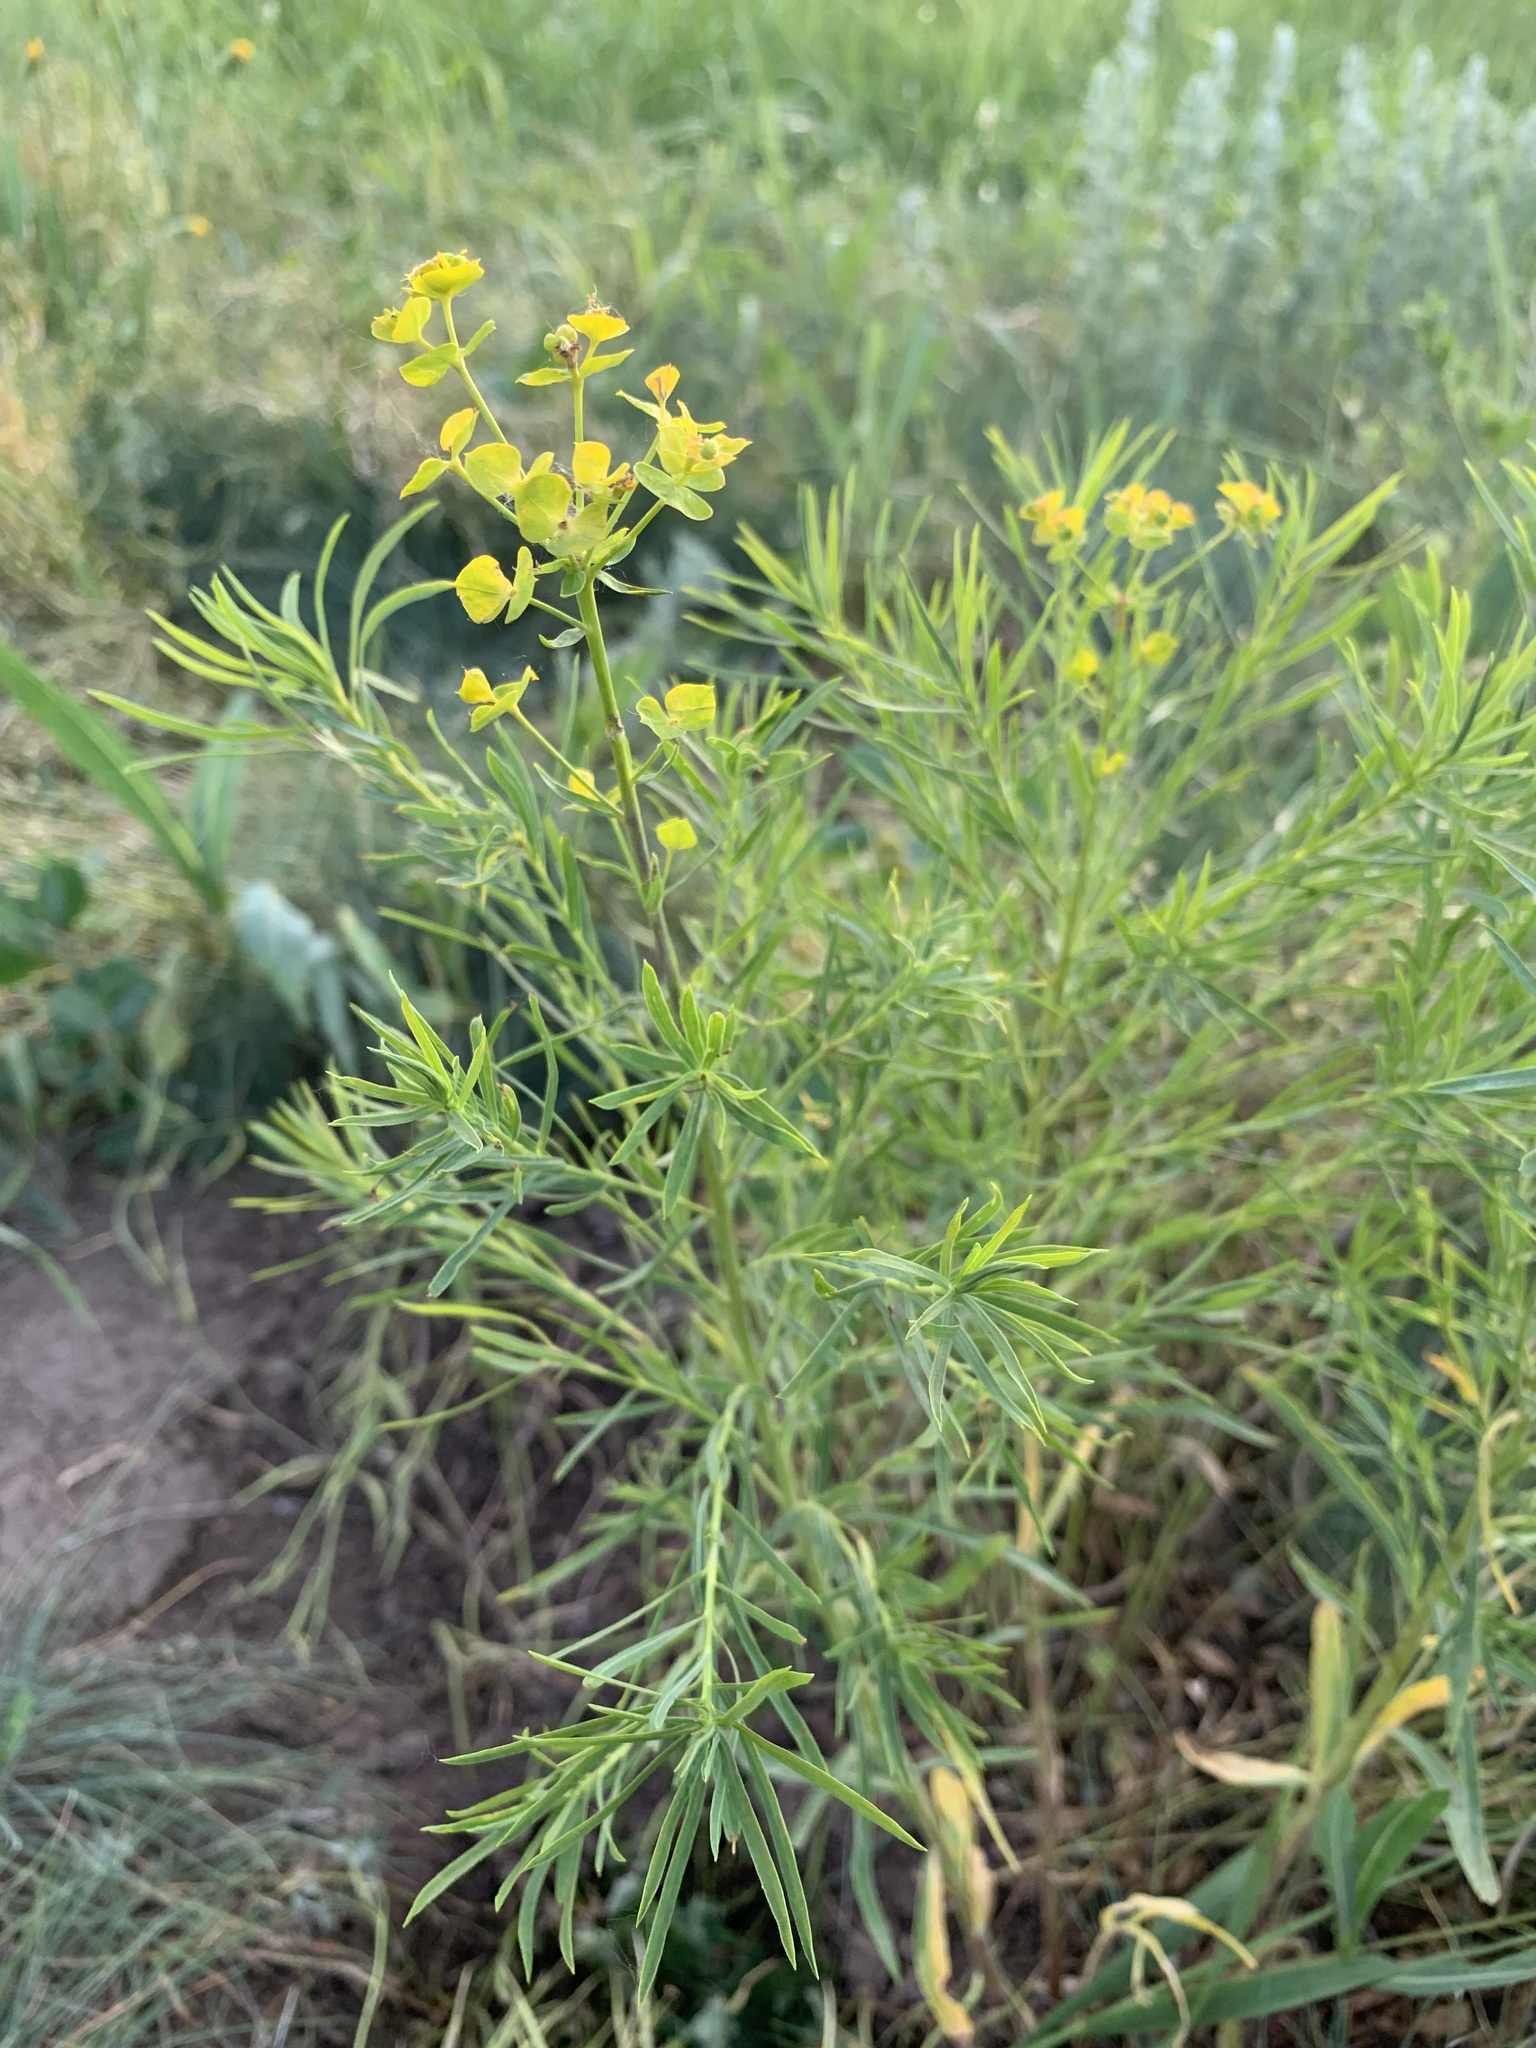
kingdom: Plantae
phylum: Tracheophyta
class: Magnoliopsida
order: Malpighiales
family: Euphorbiaceae
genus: Euphorbia
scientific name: Euphorbia uralensis
